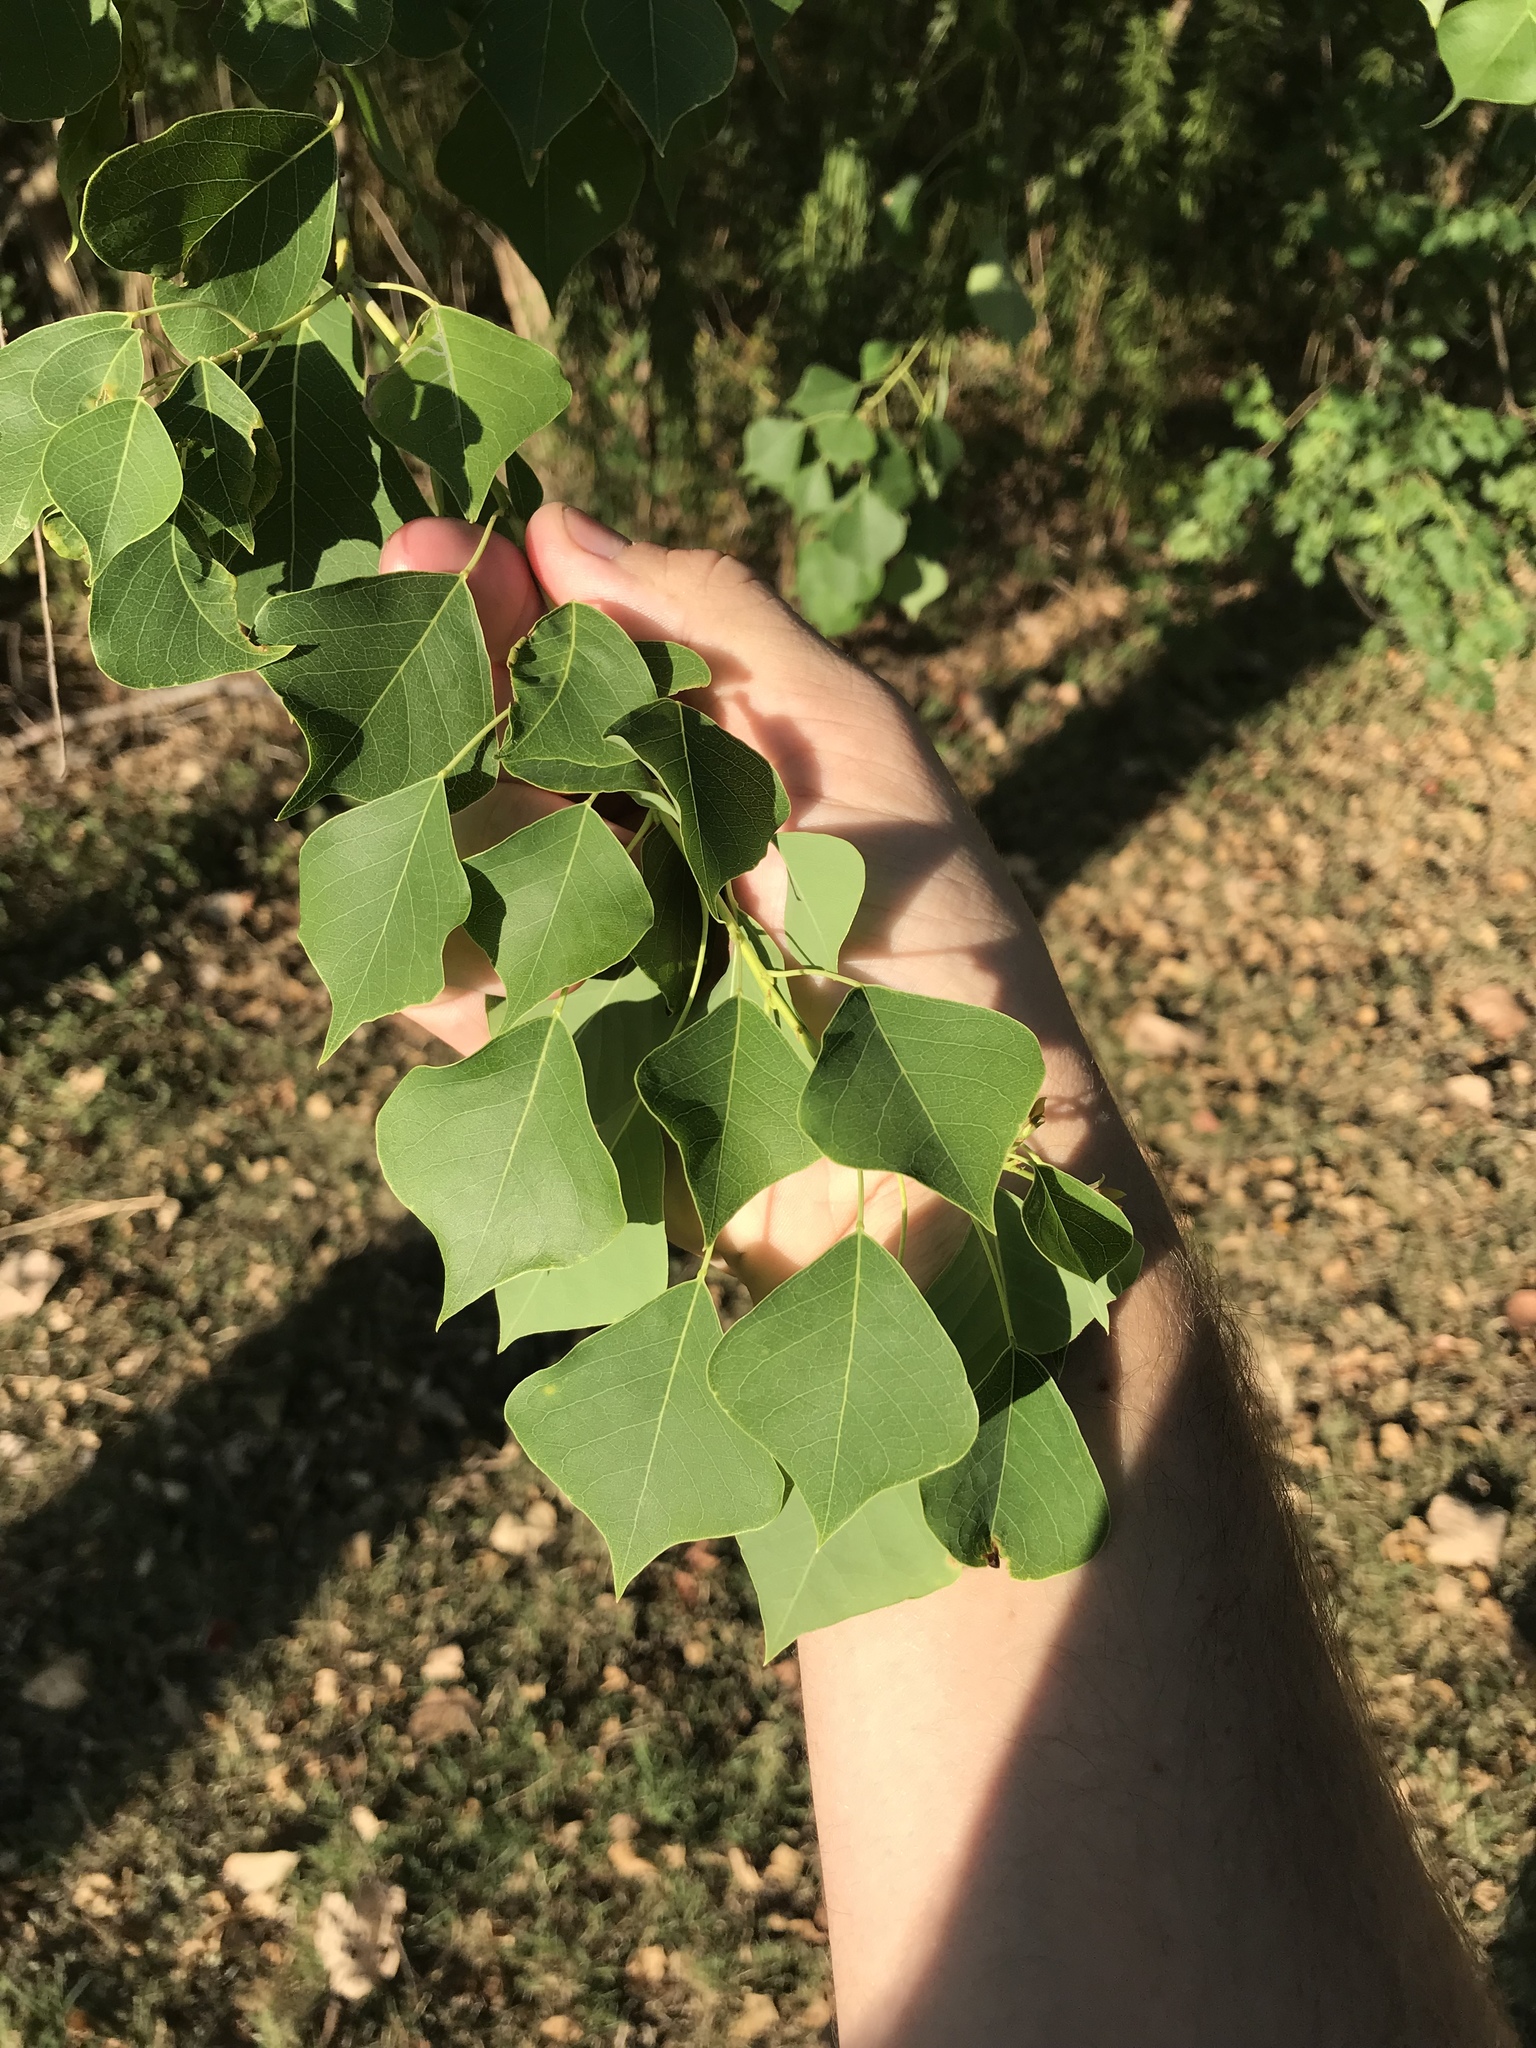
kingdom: Plantae
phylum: Tracheophyta
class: Magnoliopsida
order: Malpighiales
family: Euphorbiaceae
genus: Triadica
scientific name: Triadica sebifera
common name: Chinese tallow
